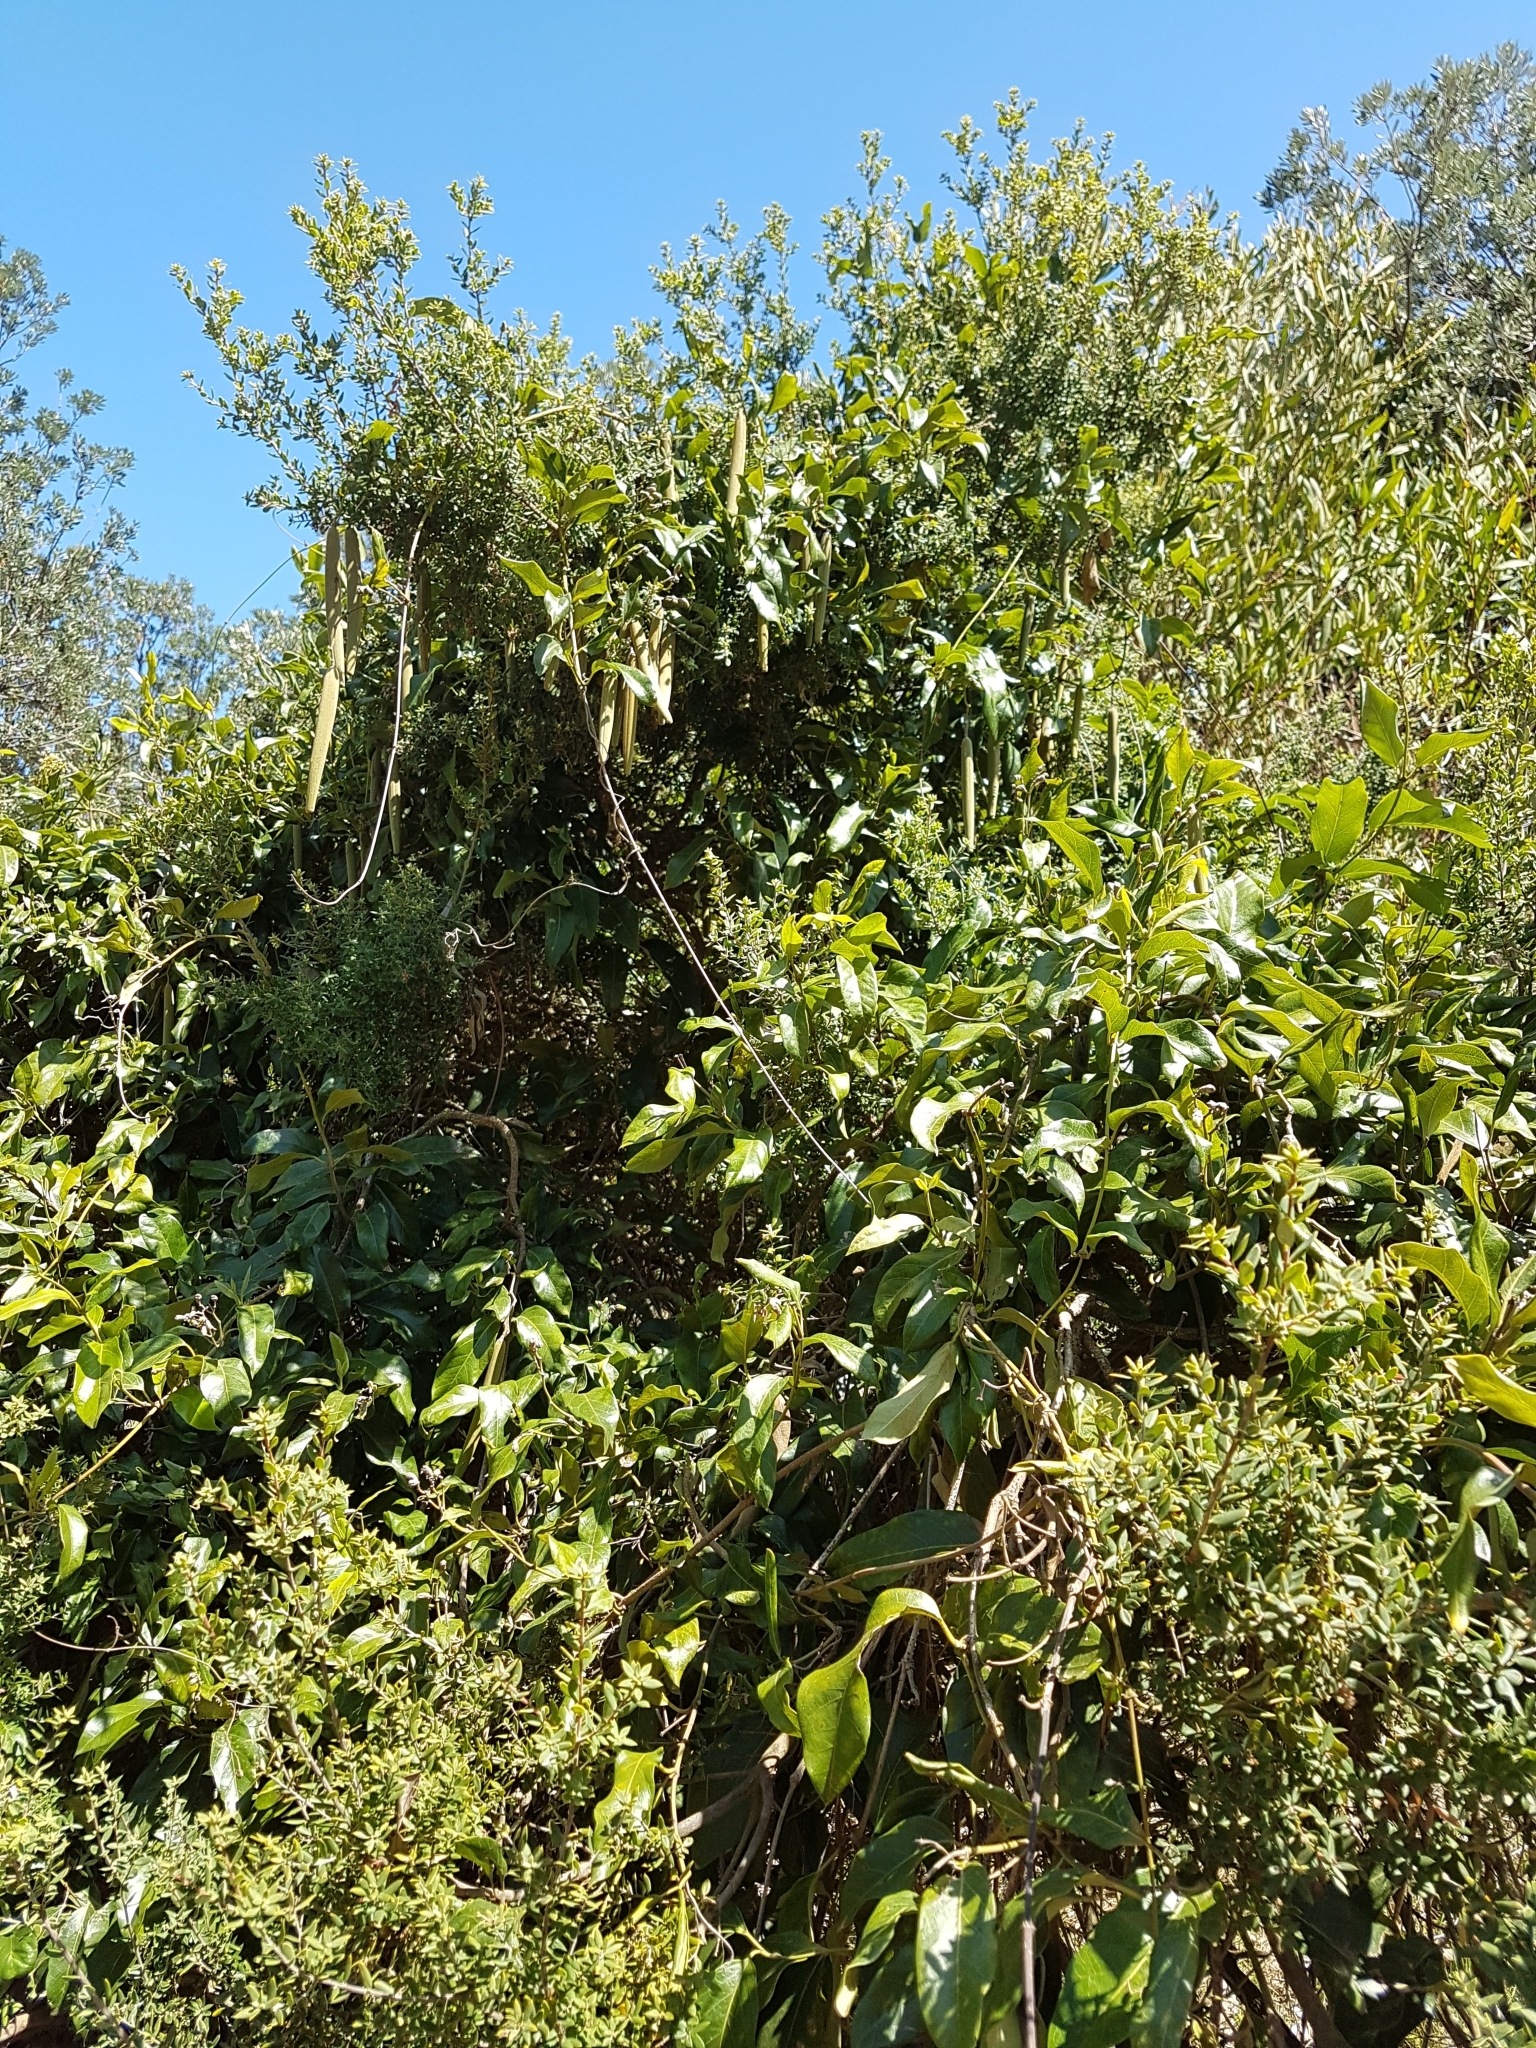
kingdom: Plantae
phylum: Tracheophyta
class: Magnoliopsida
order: Gentianales
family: Apocynaceae
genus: Parsonsia
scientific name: Parsonsia straminea
